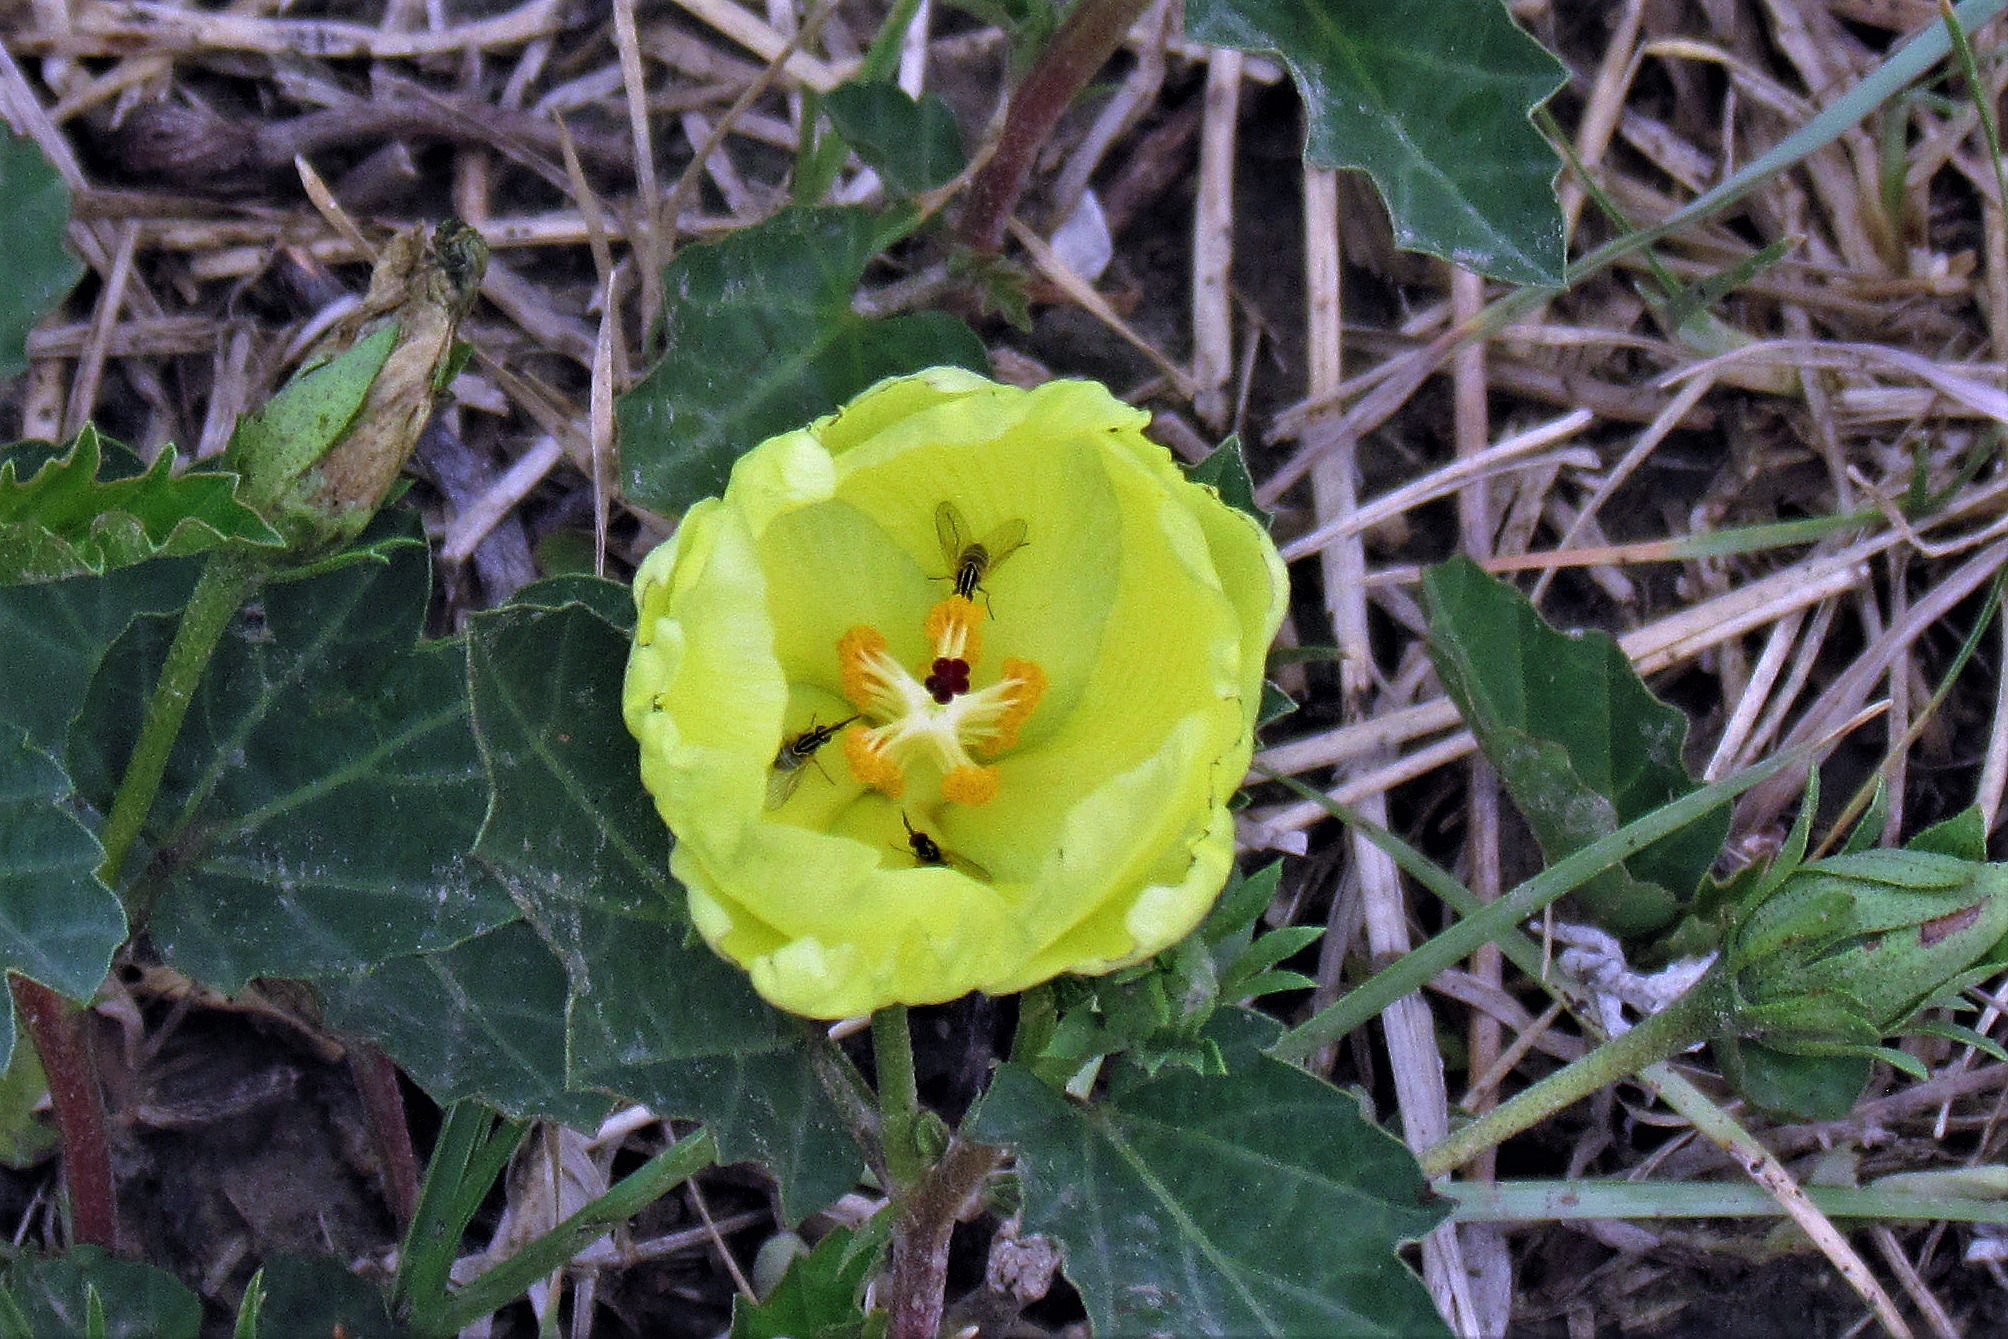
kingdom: Plantae
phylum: Tracheophyta
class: Magnoliopsida
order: Malvales
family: Malvaceae
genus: Cienfuegosia
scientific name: Cienfuegosia drummondii
